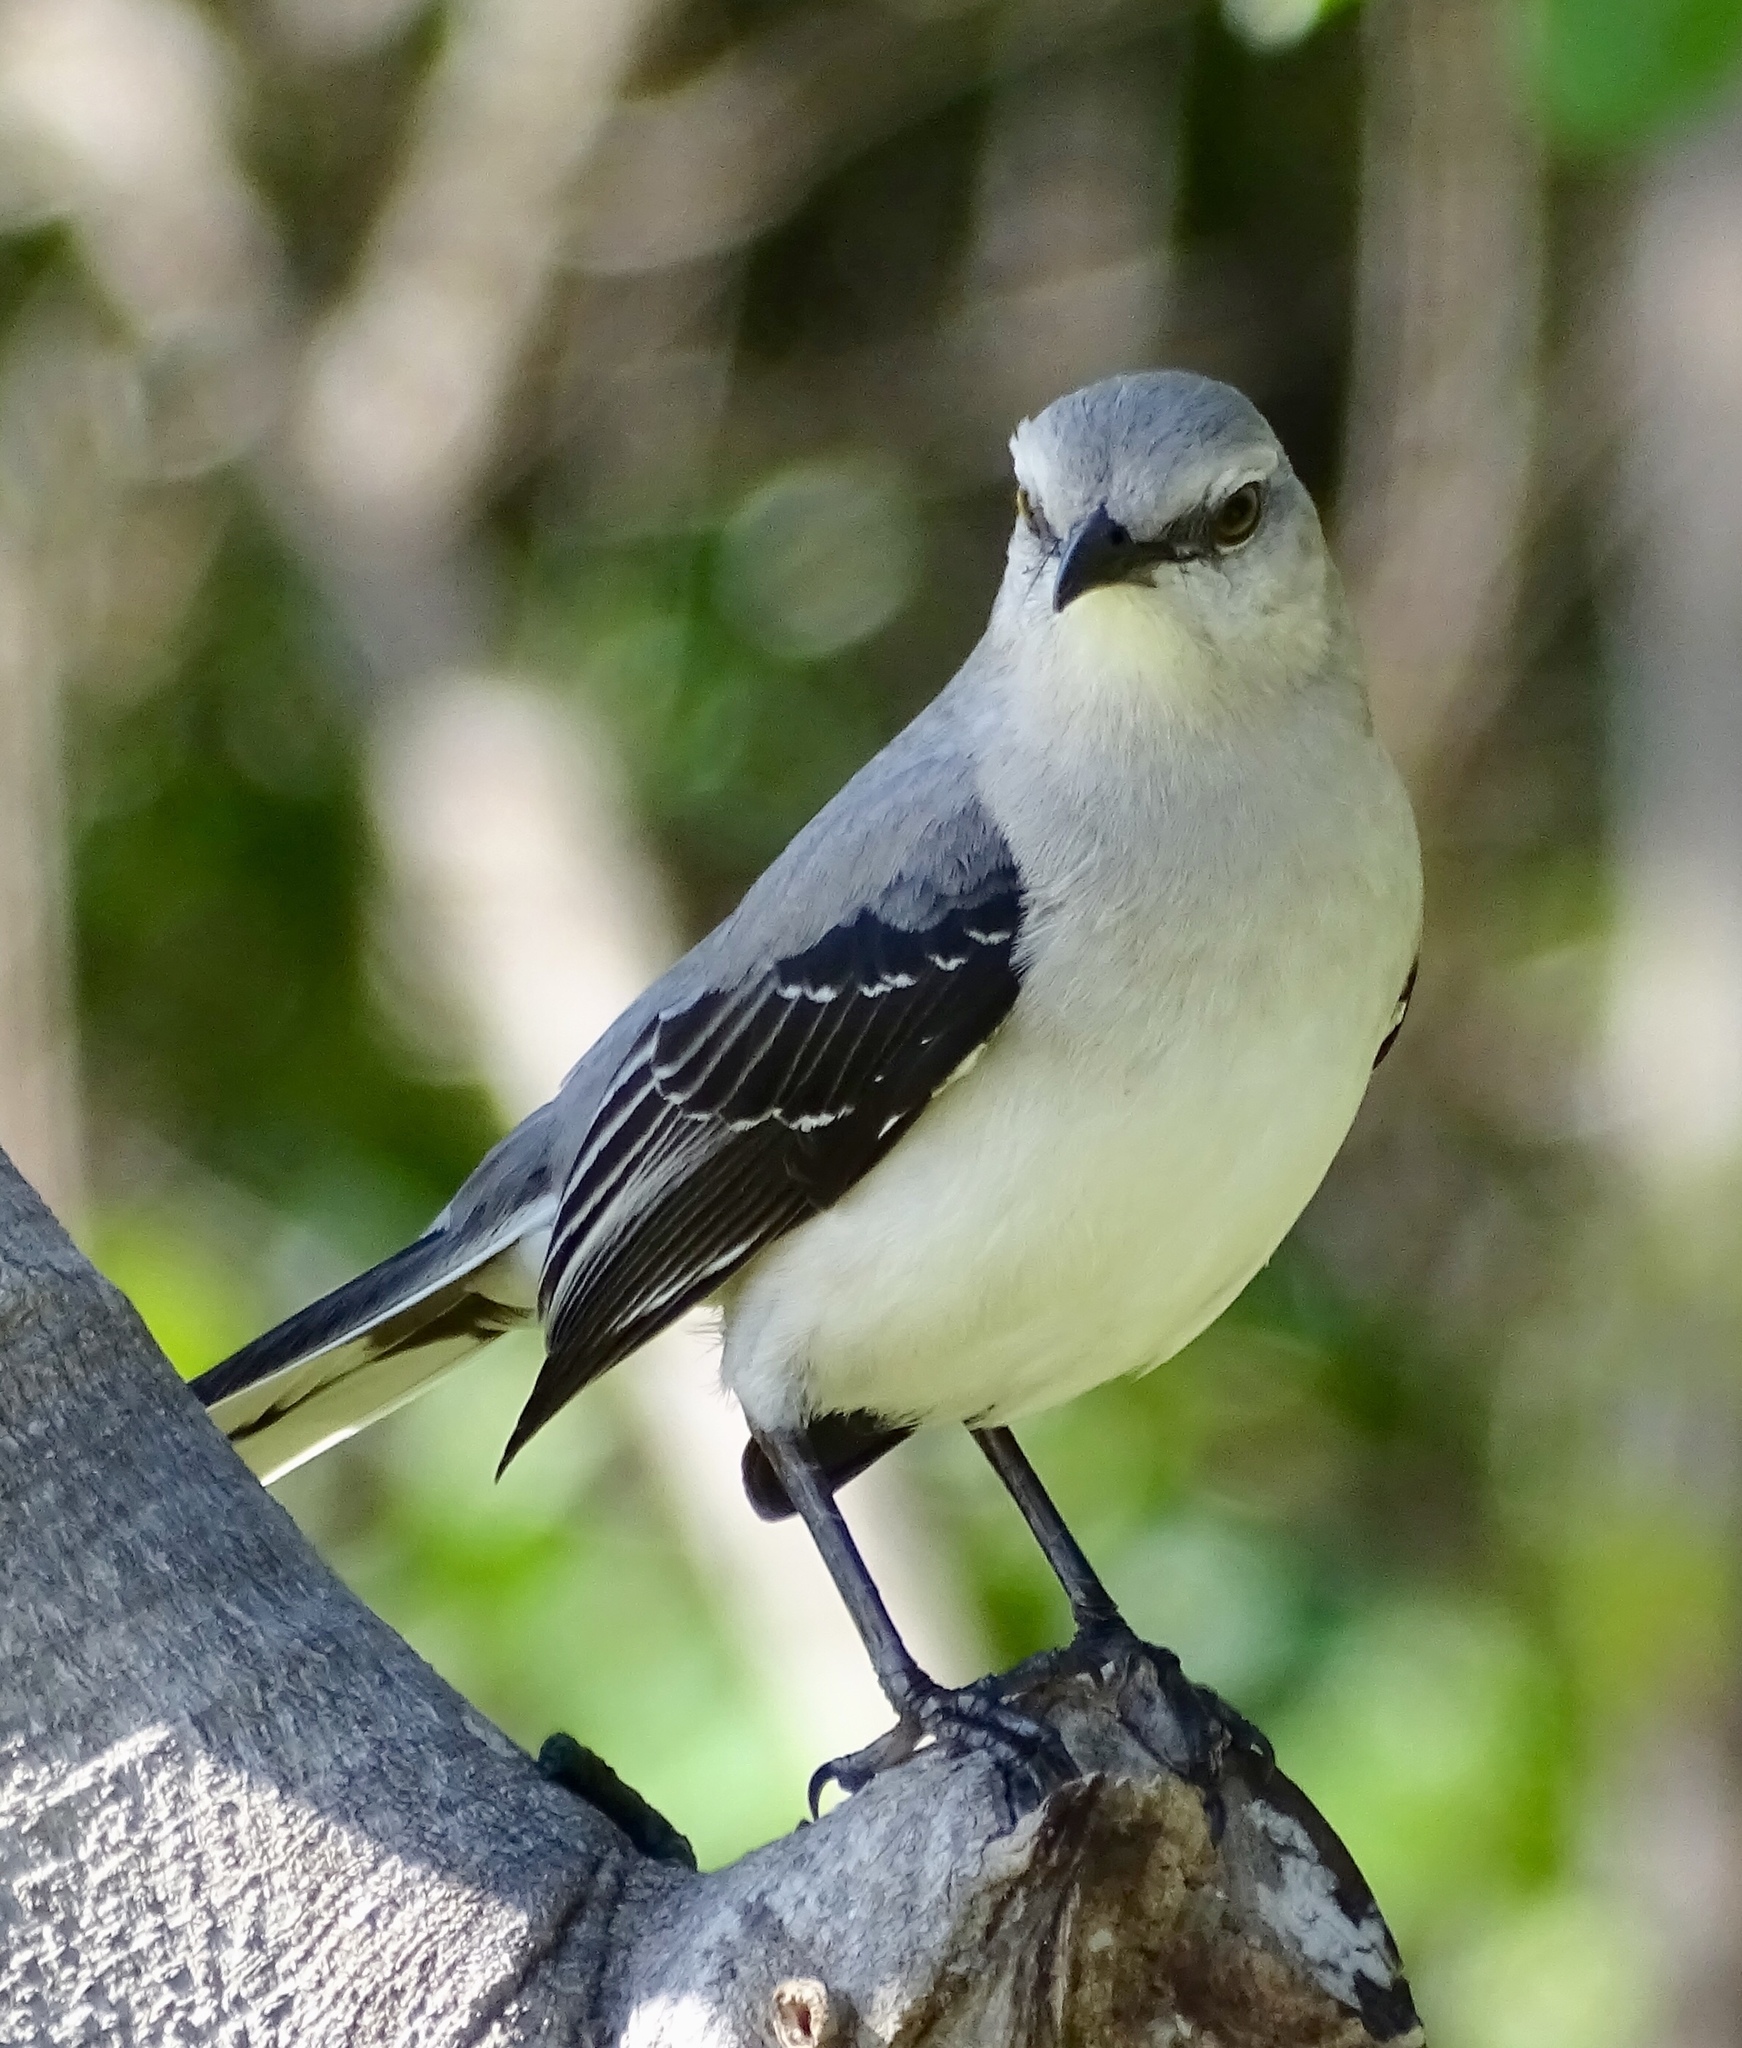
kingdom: Animalia
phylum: Chordata
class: Aves
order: Passeriformes
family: Mimidae
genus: Mimus
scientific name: Mimus gilvus
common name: Tropical mockingbird
